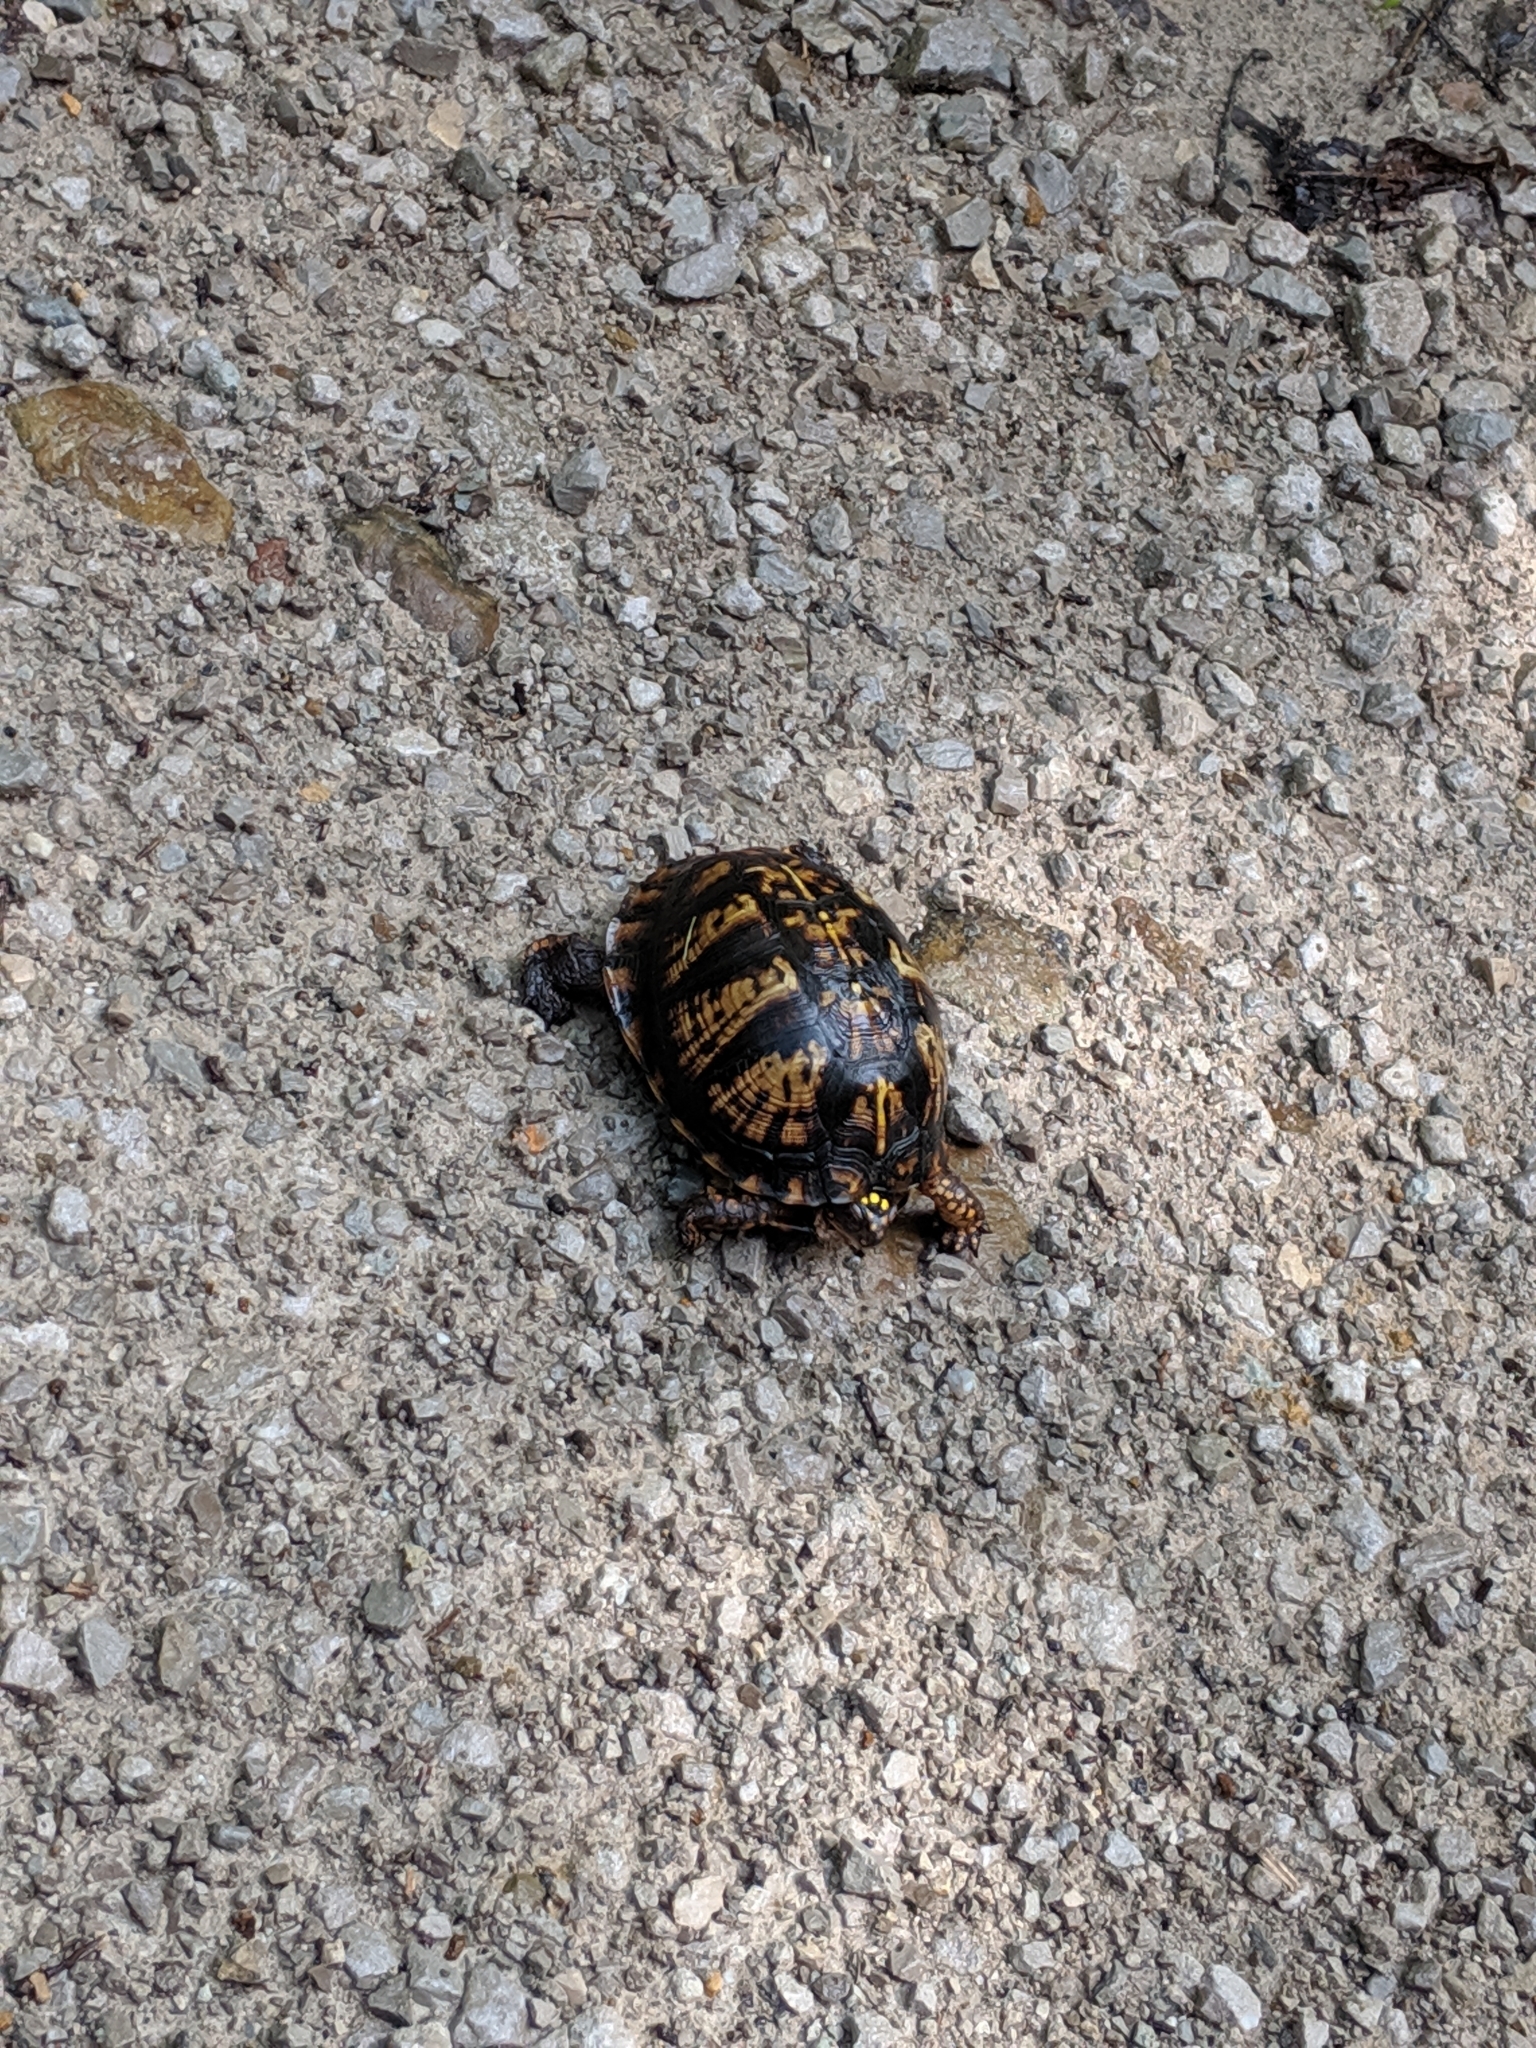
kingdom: Animalia
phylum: Chordata
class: Testudines
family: Emydidae
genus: Terrapene
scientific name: Terrapene carolina
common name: Common box turtle
